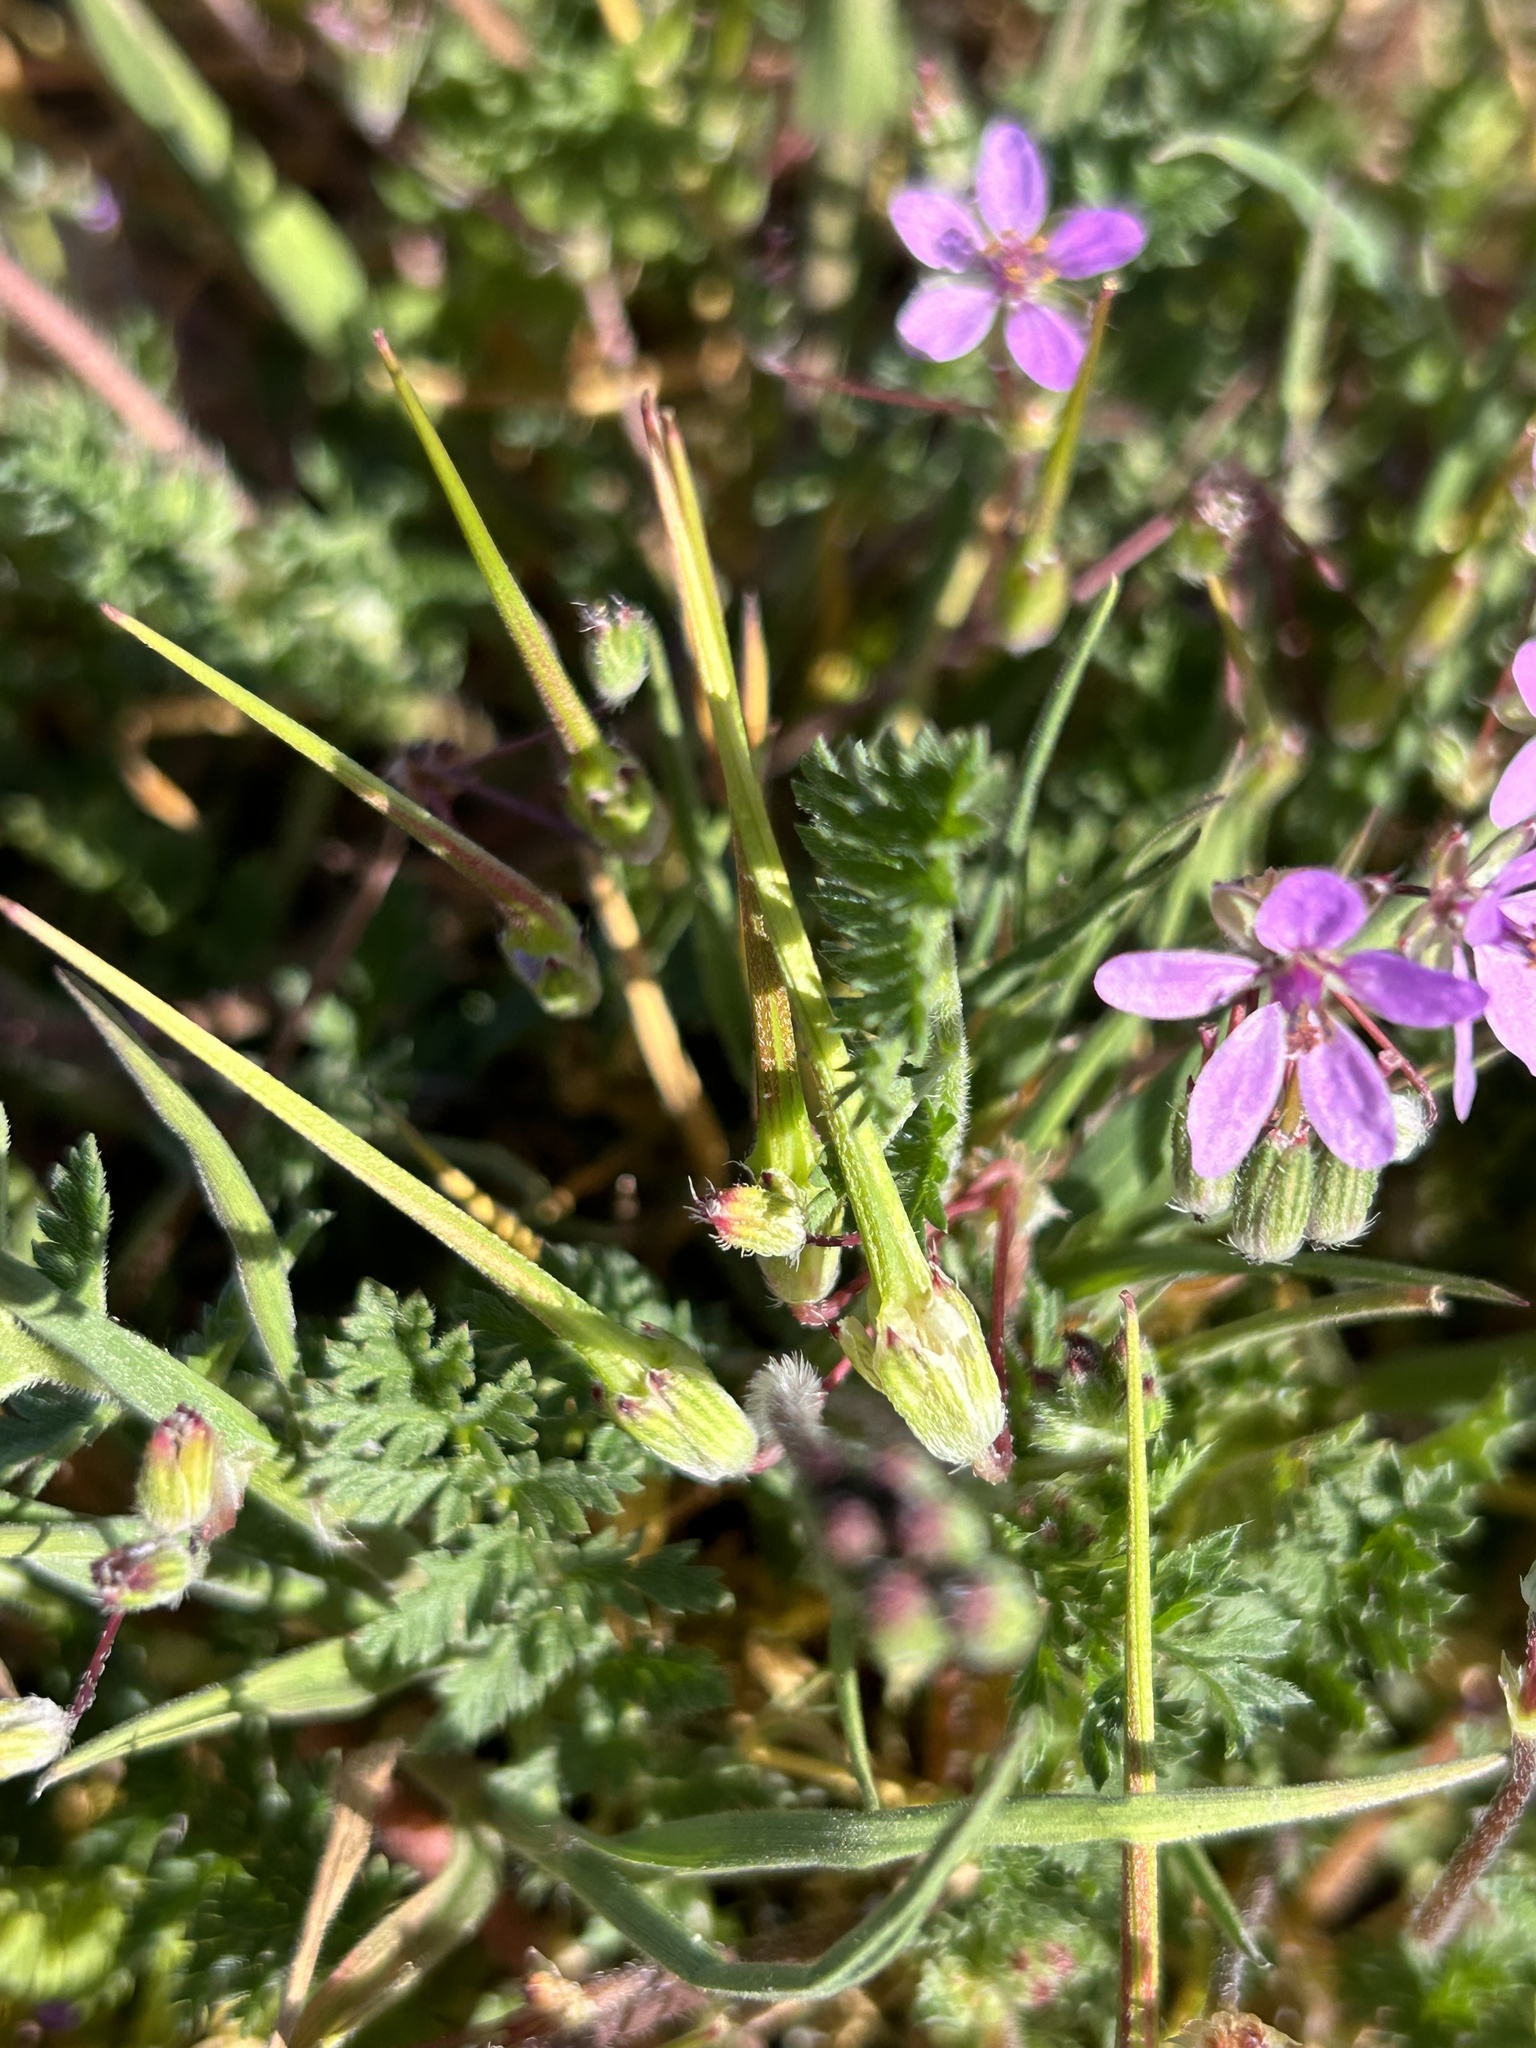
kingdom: Plantae
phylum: Tracheophyta
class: Magnoliopsida
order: Geraniales
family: Geraniaceae
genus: Erodium
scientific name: Erodium cicutarium
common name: Common stork's-bill
